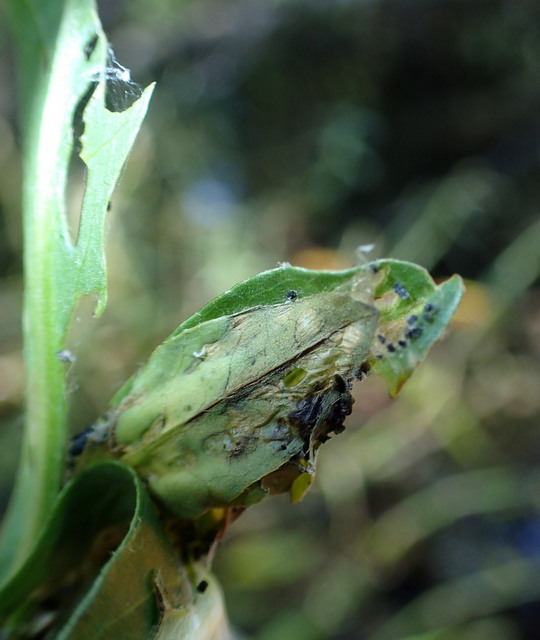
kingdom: Animalia
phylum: Arthropoda
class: Insecta
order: Coleoptera
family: Chrysomelidae
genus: Agasicles
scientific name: Agasicles hygrophila
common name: Alligatorweed flea beetle
